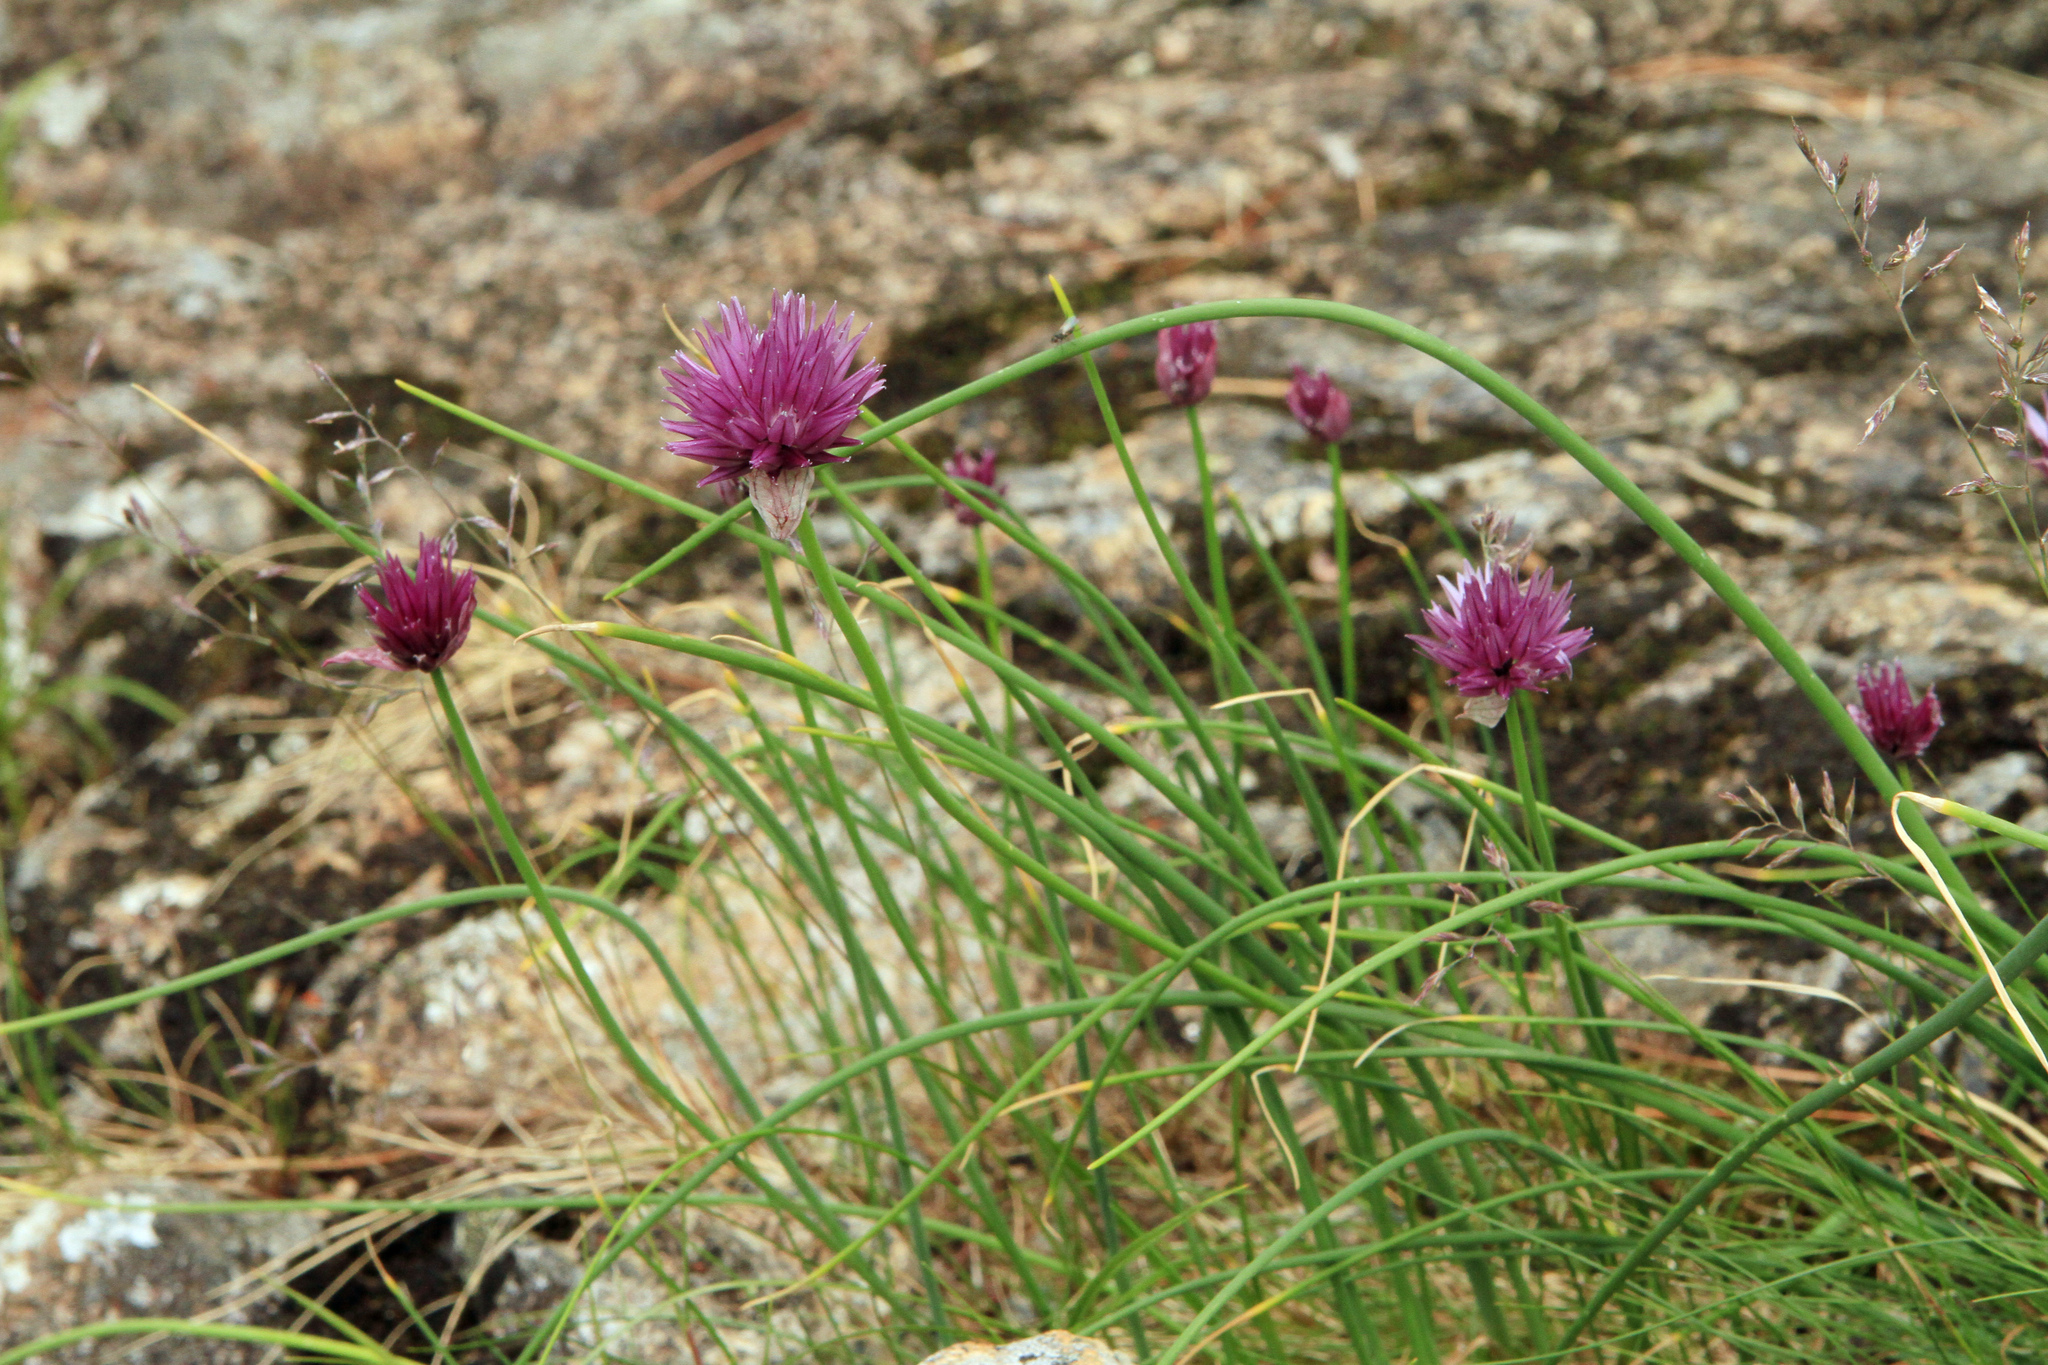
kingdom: Plantae
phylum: Tracheophyta
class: Liliopsida
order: Asparagales
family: Amaryllidaceae
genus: Allium
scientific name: Allium schoenoprasum
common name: Chives
